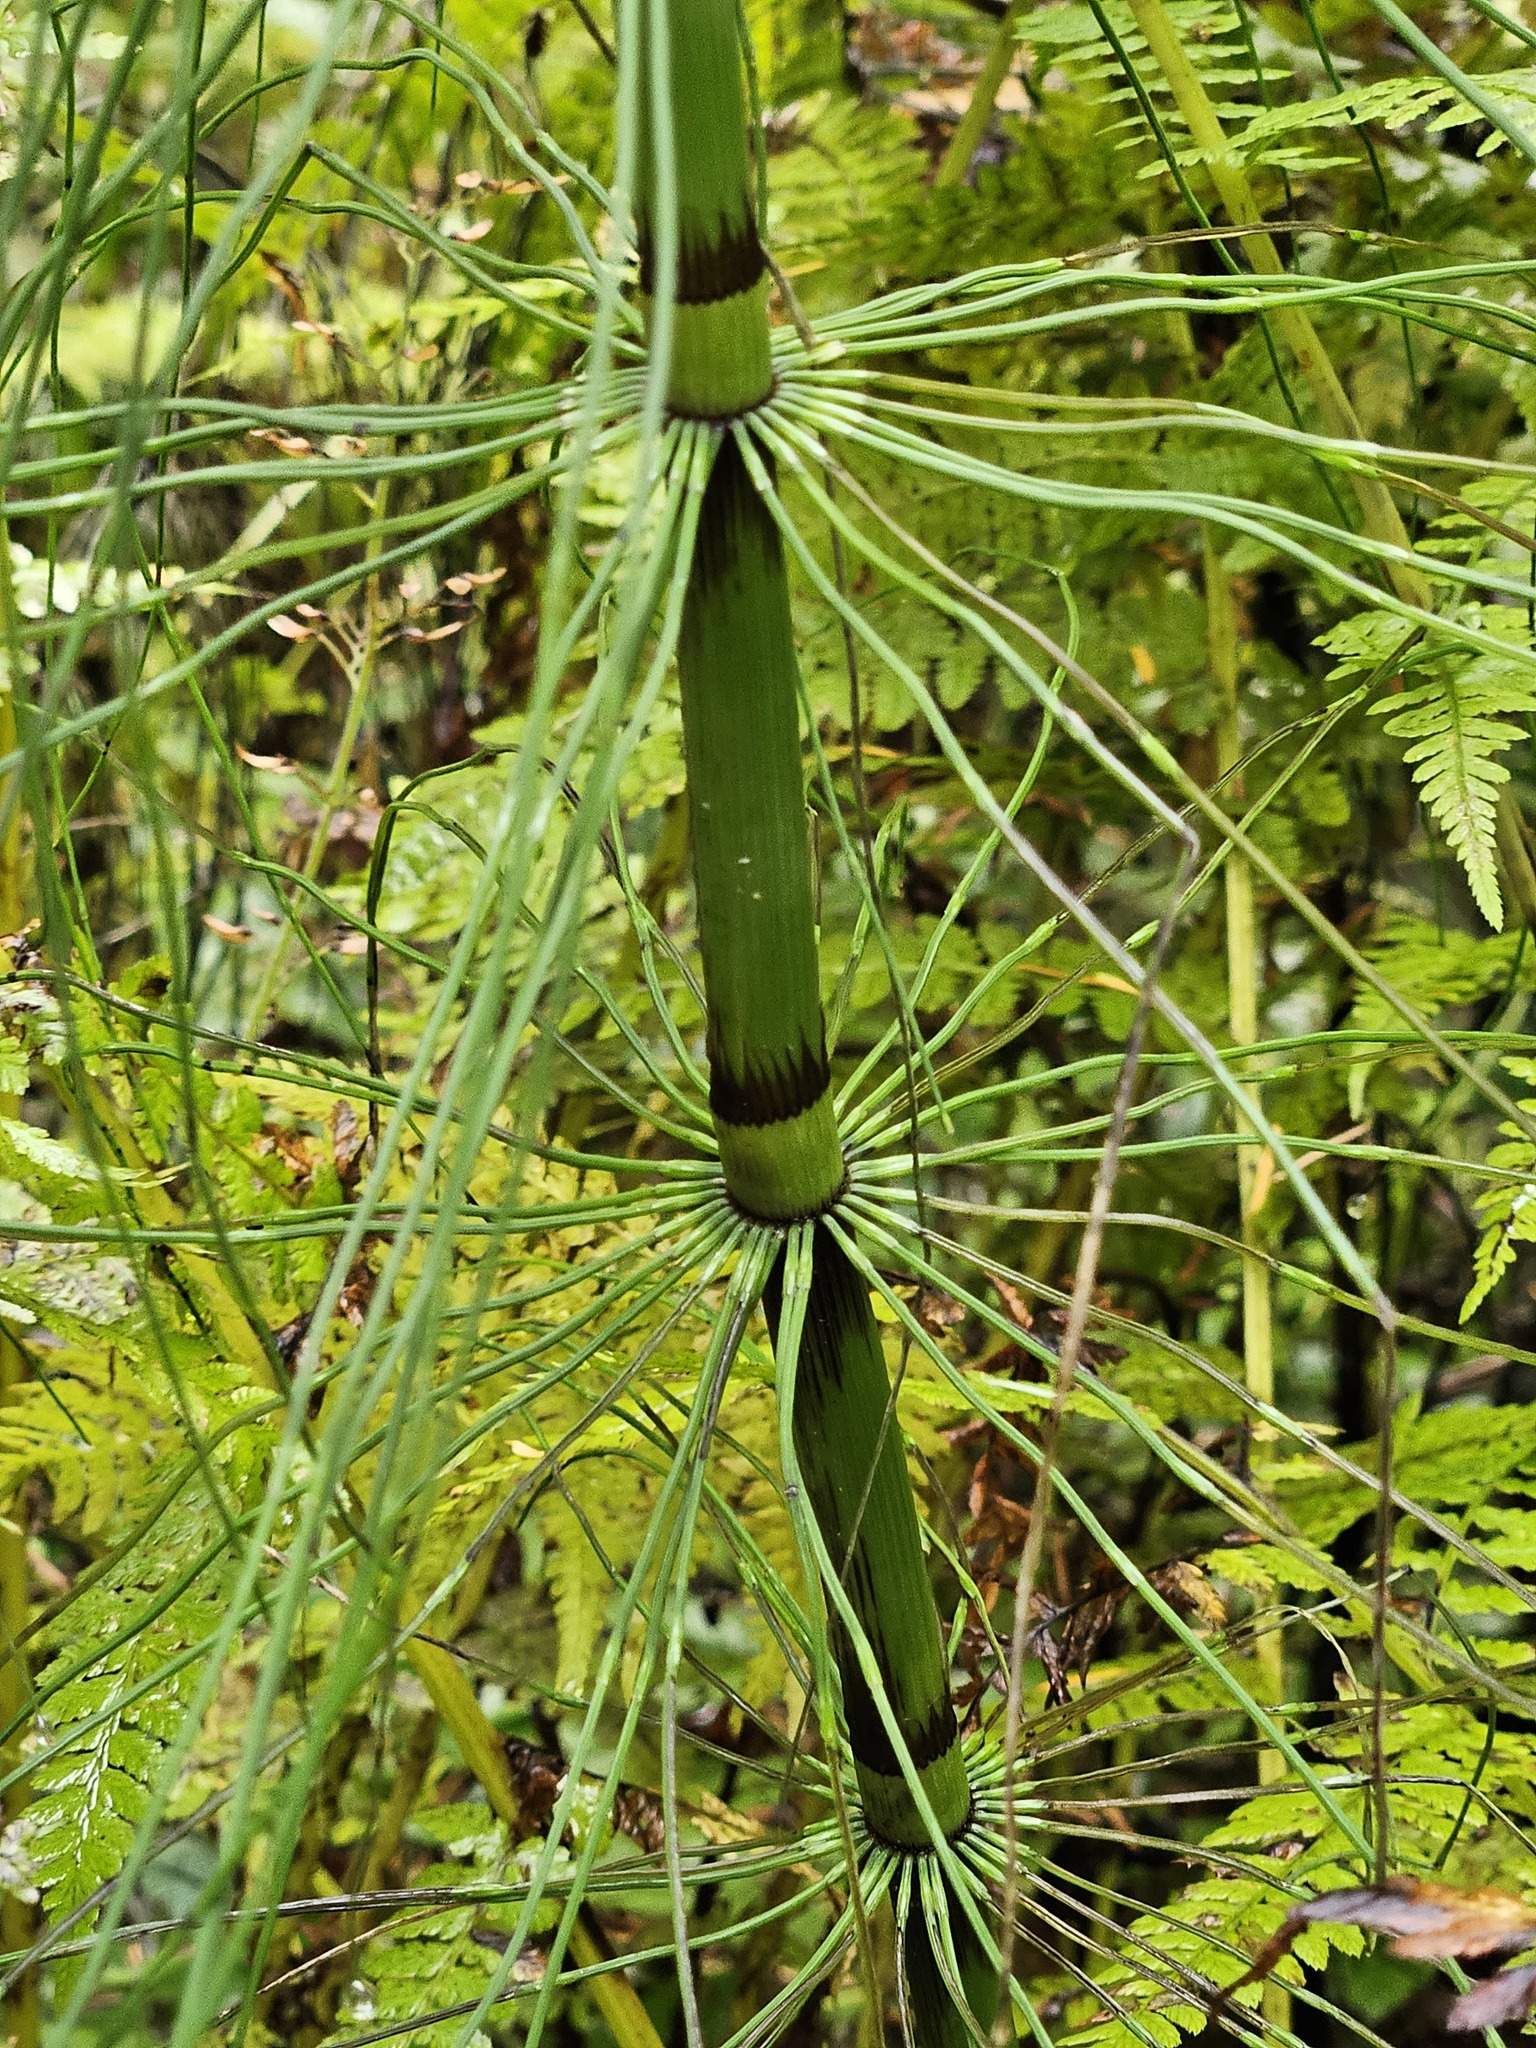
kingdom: Plantae
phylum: Tracheophyta
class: Polypodiopsida
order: Equisetales
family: Equisetaceae
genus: Equisetum
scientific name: Equisetum telmateia
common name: Great horsetail
